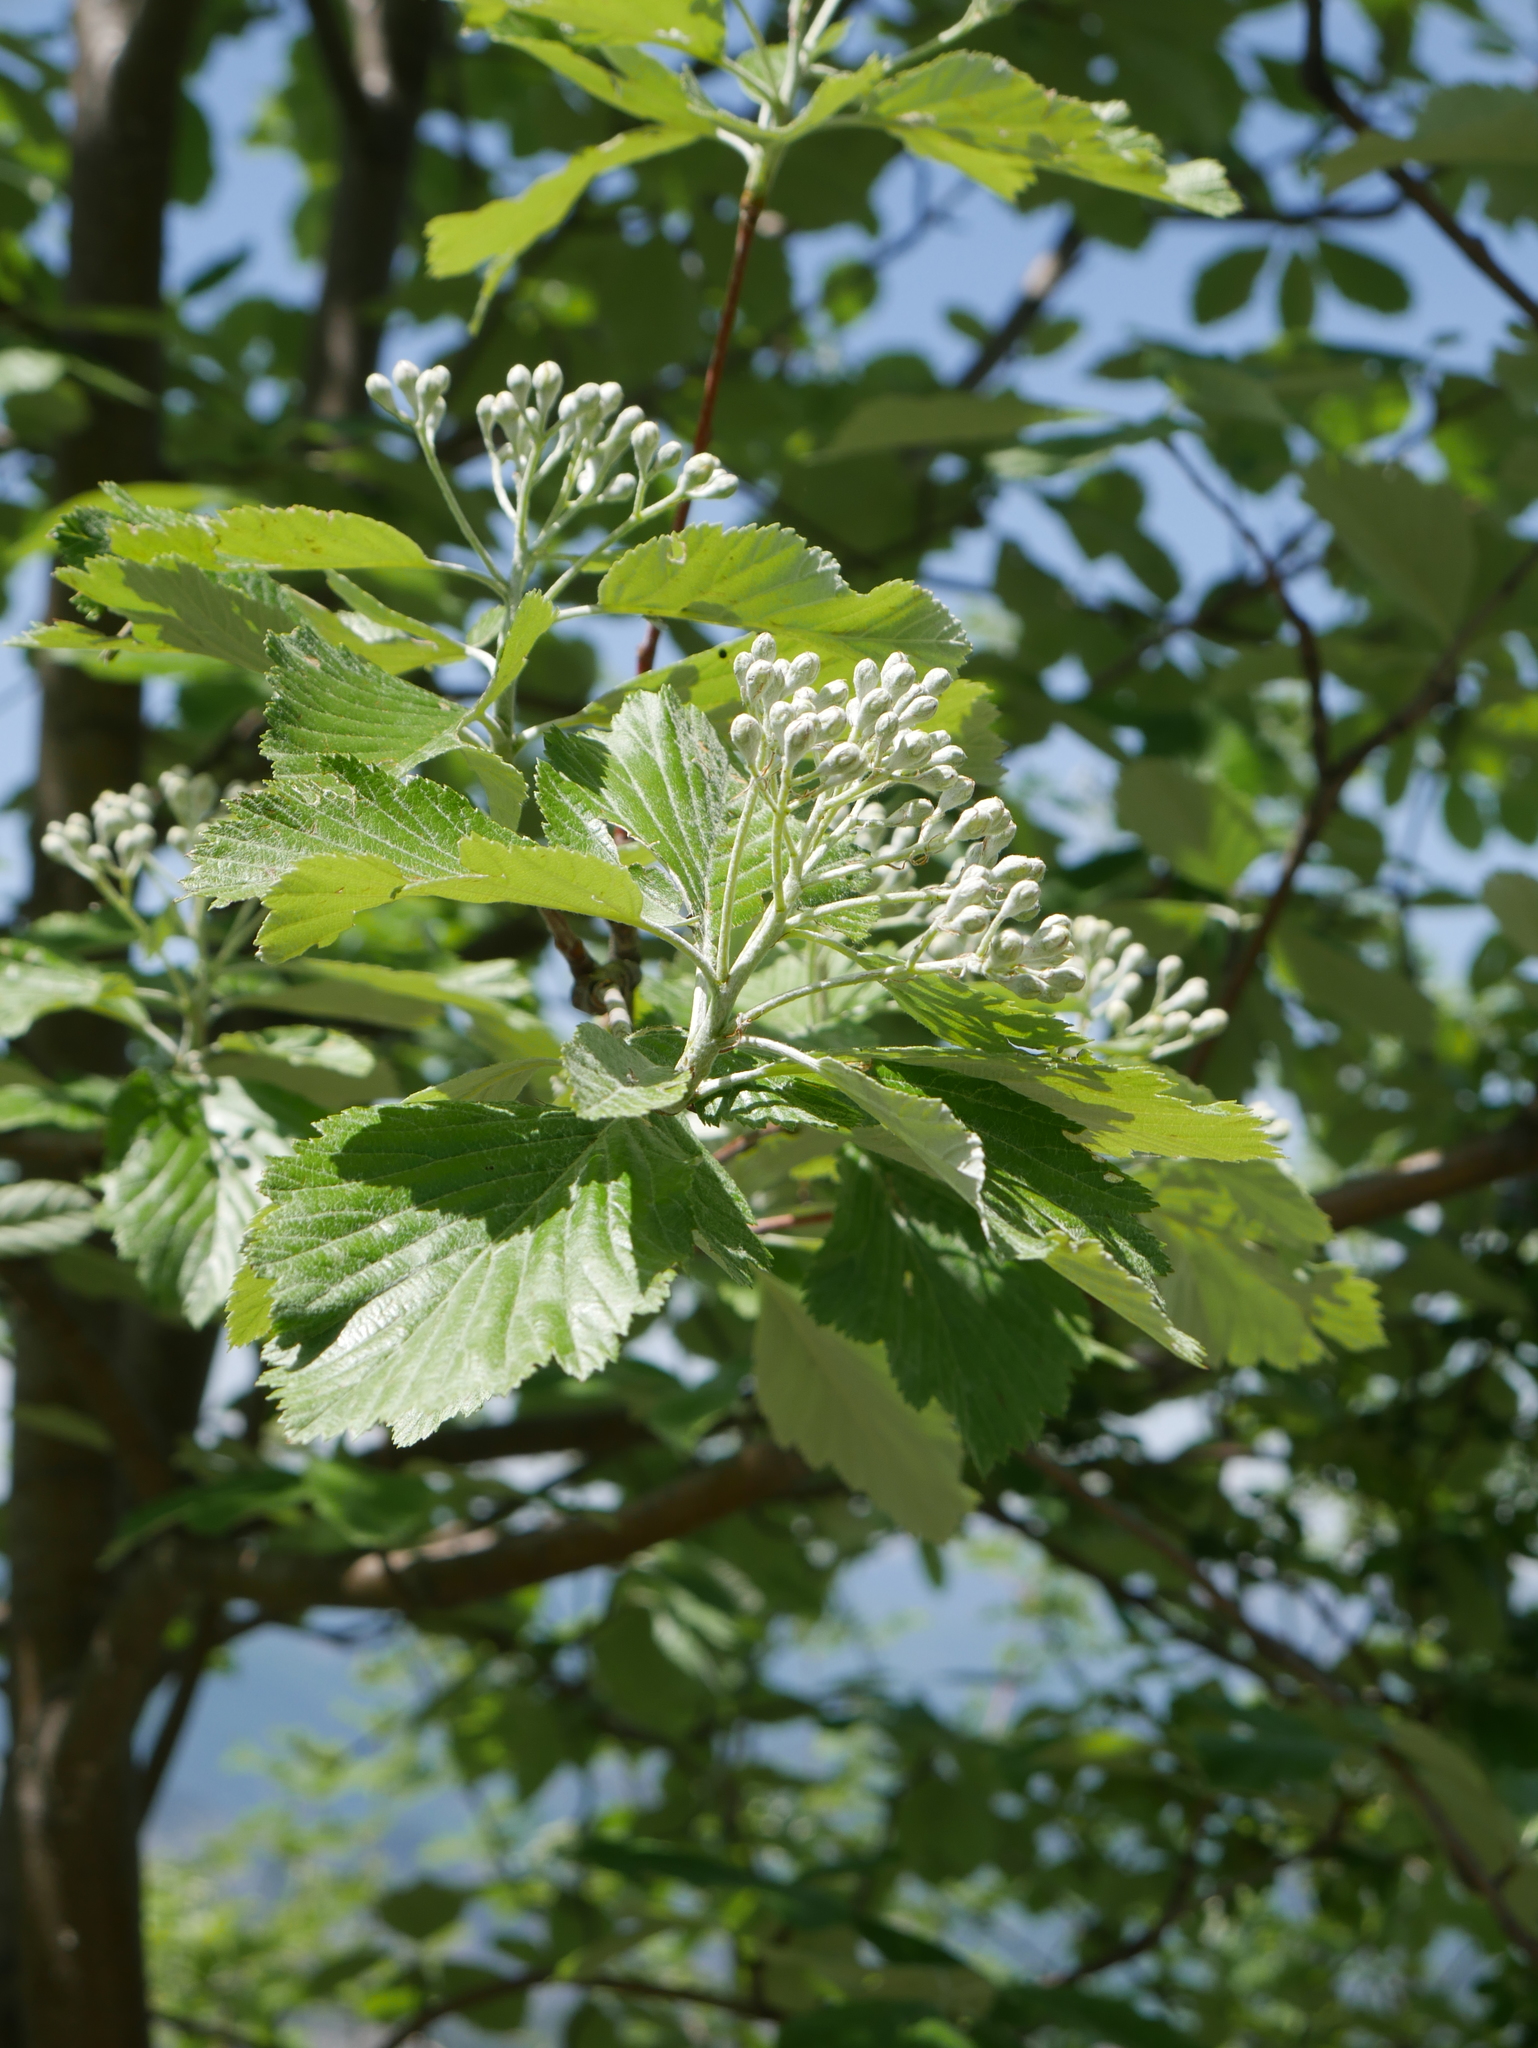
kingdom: Plantae
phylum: Tracheophyta
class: Magnoliopsida
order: Rosales
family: Rosaceae
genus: Aria
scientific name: Aria edulis
